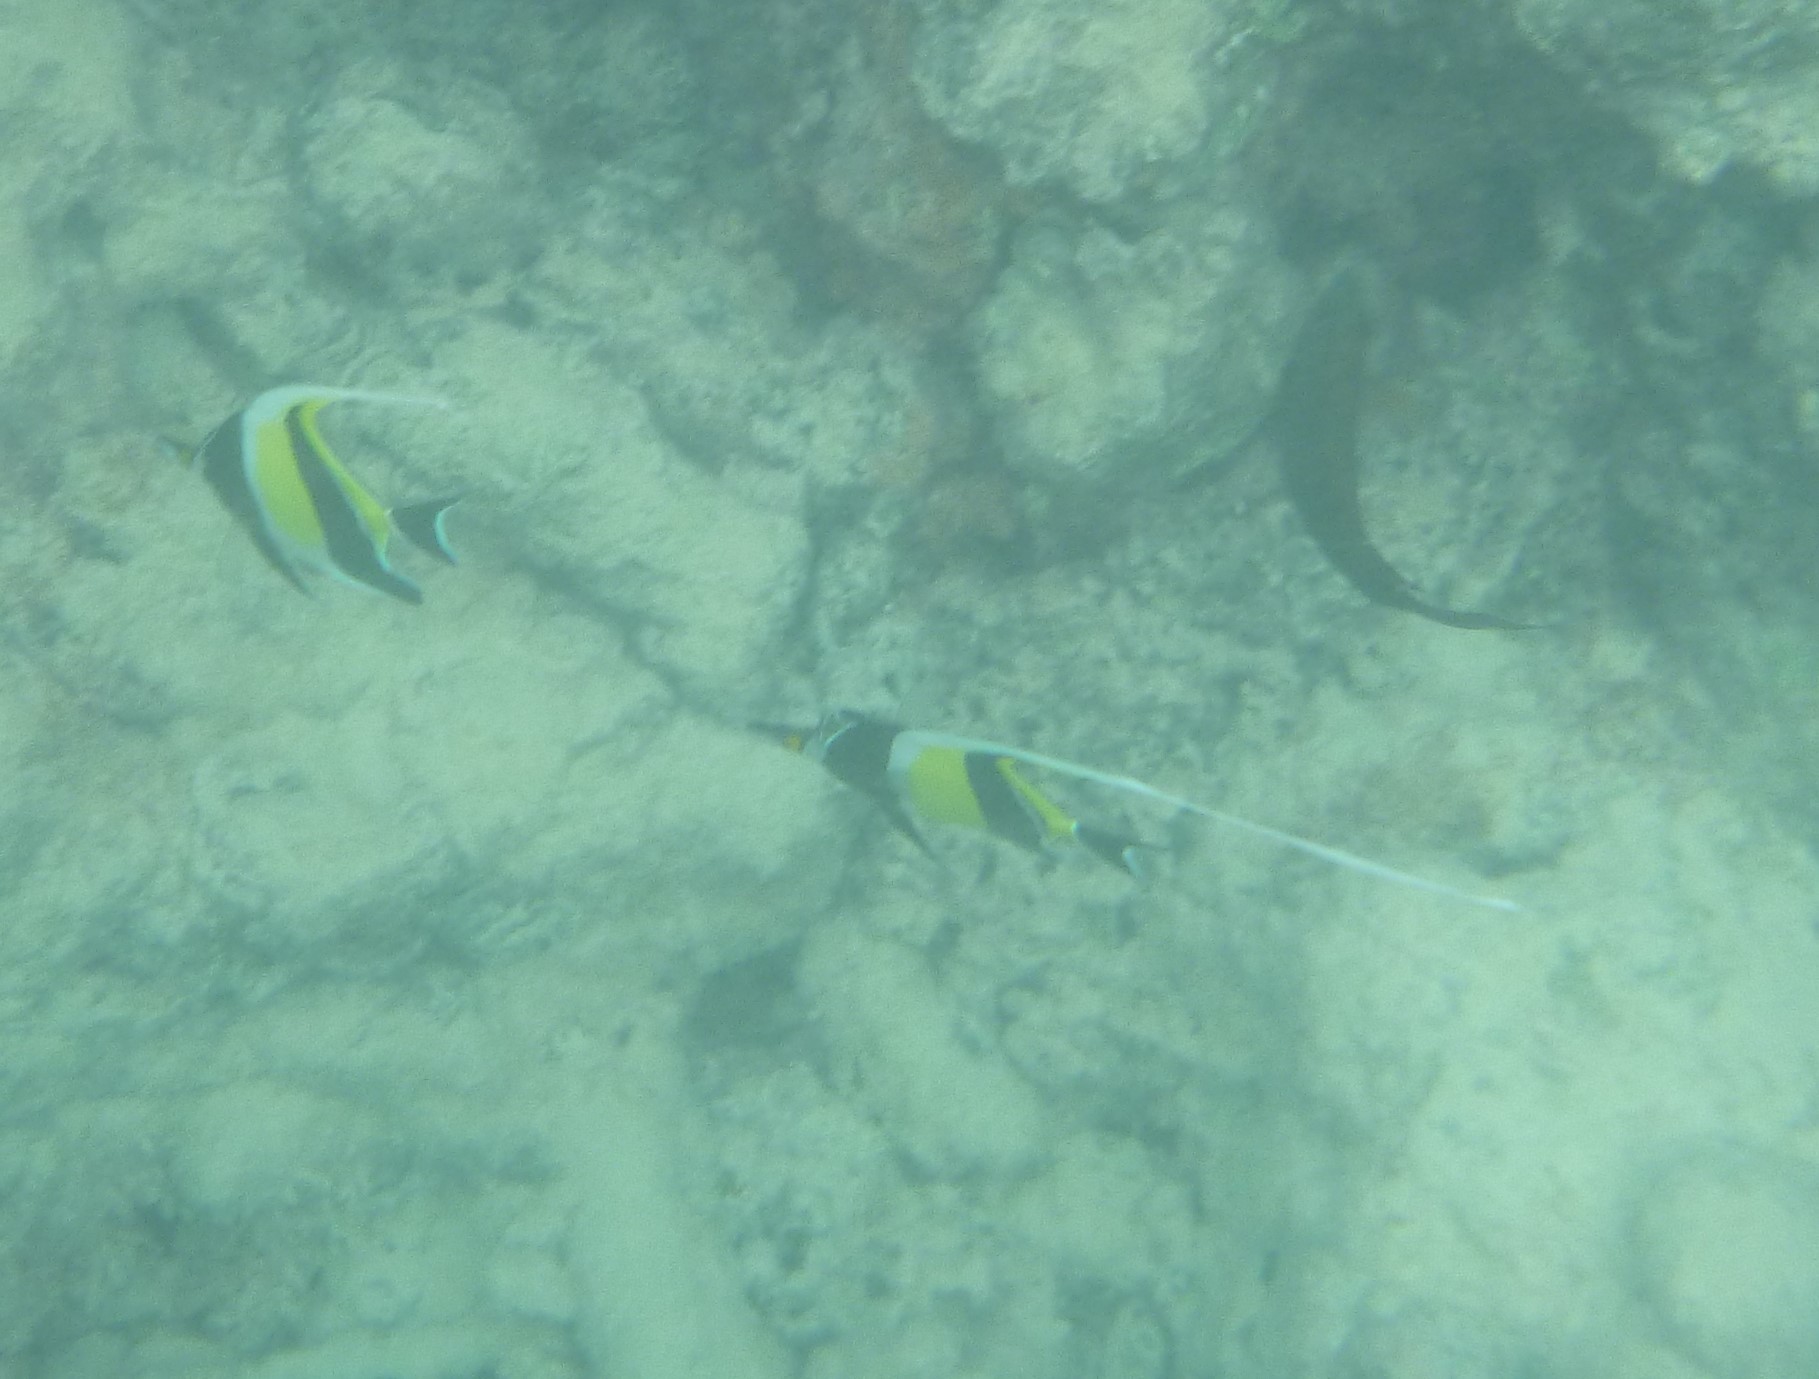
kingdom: Animalia
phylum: Chordata
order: Perciformes
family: Zanclidae
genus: Zanclus
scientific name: Zanclus cornutus
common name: Moorish idol
